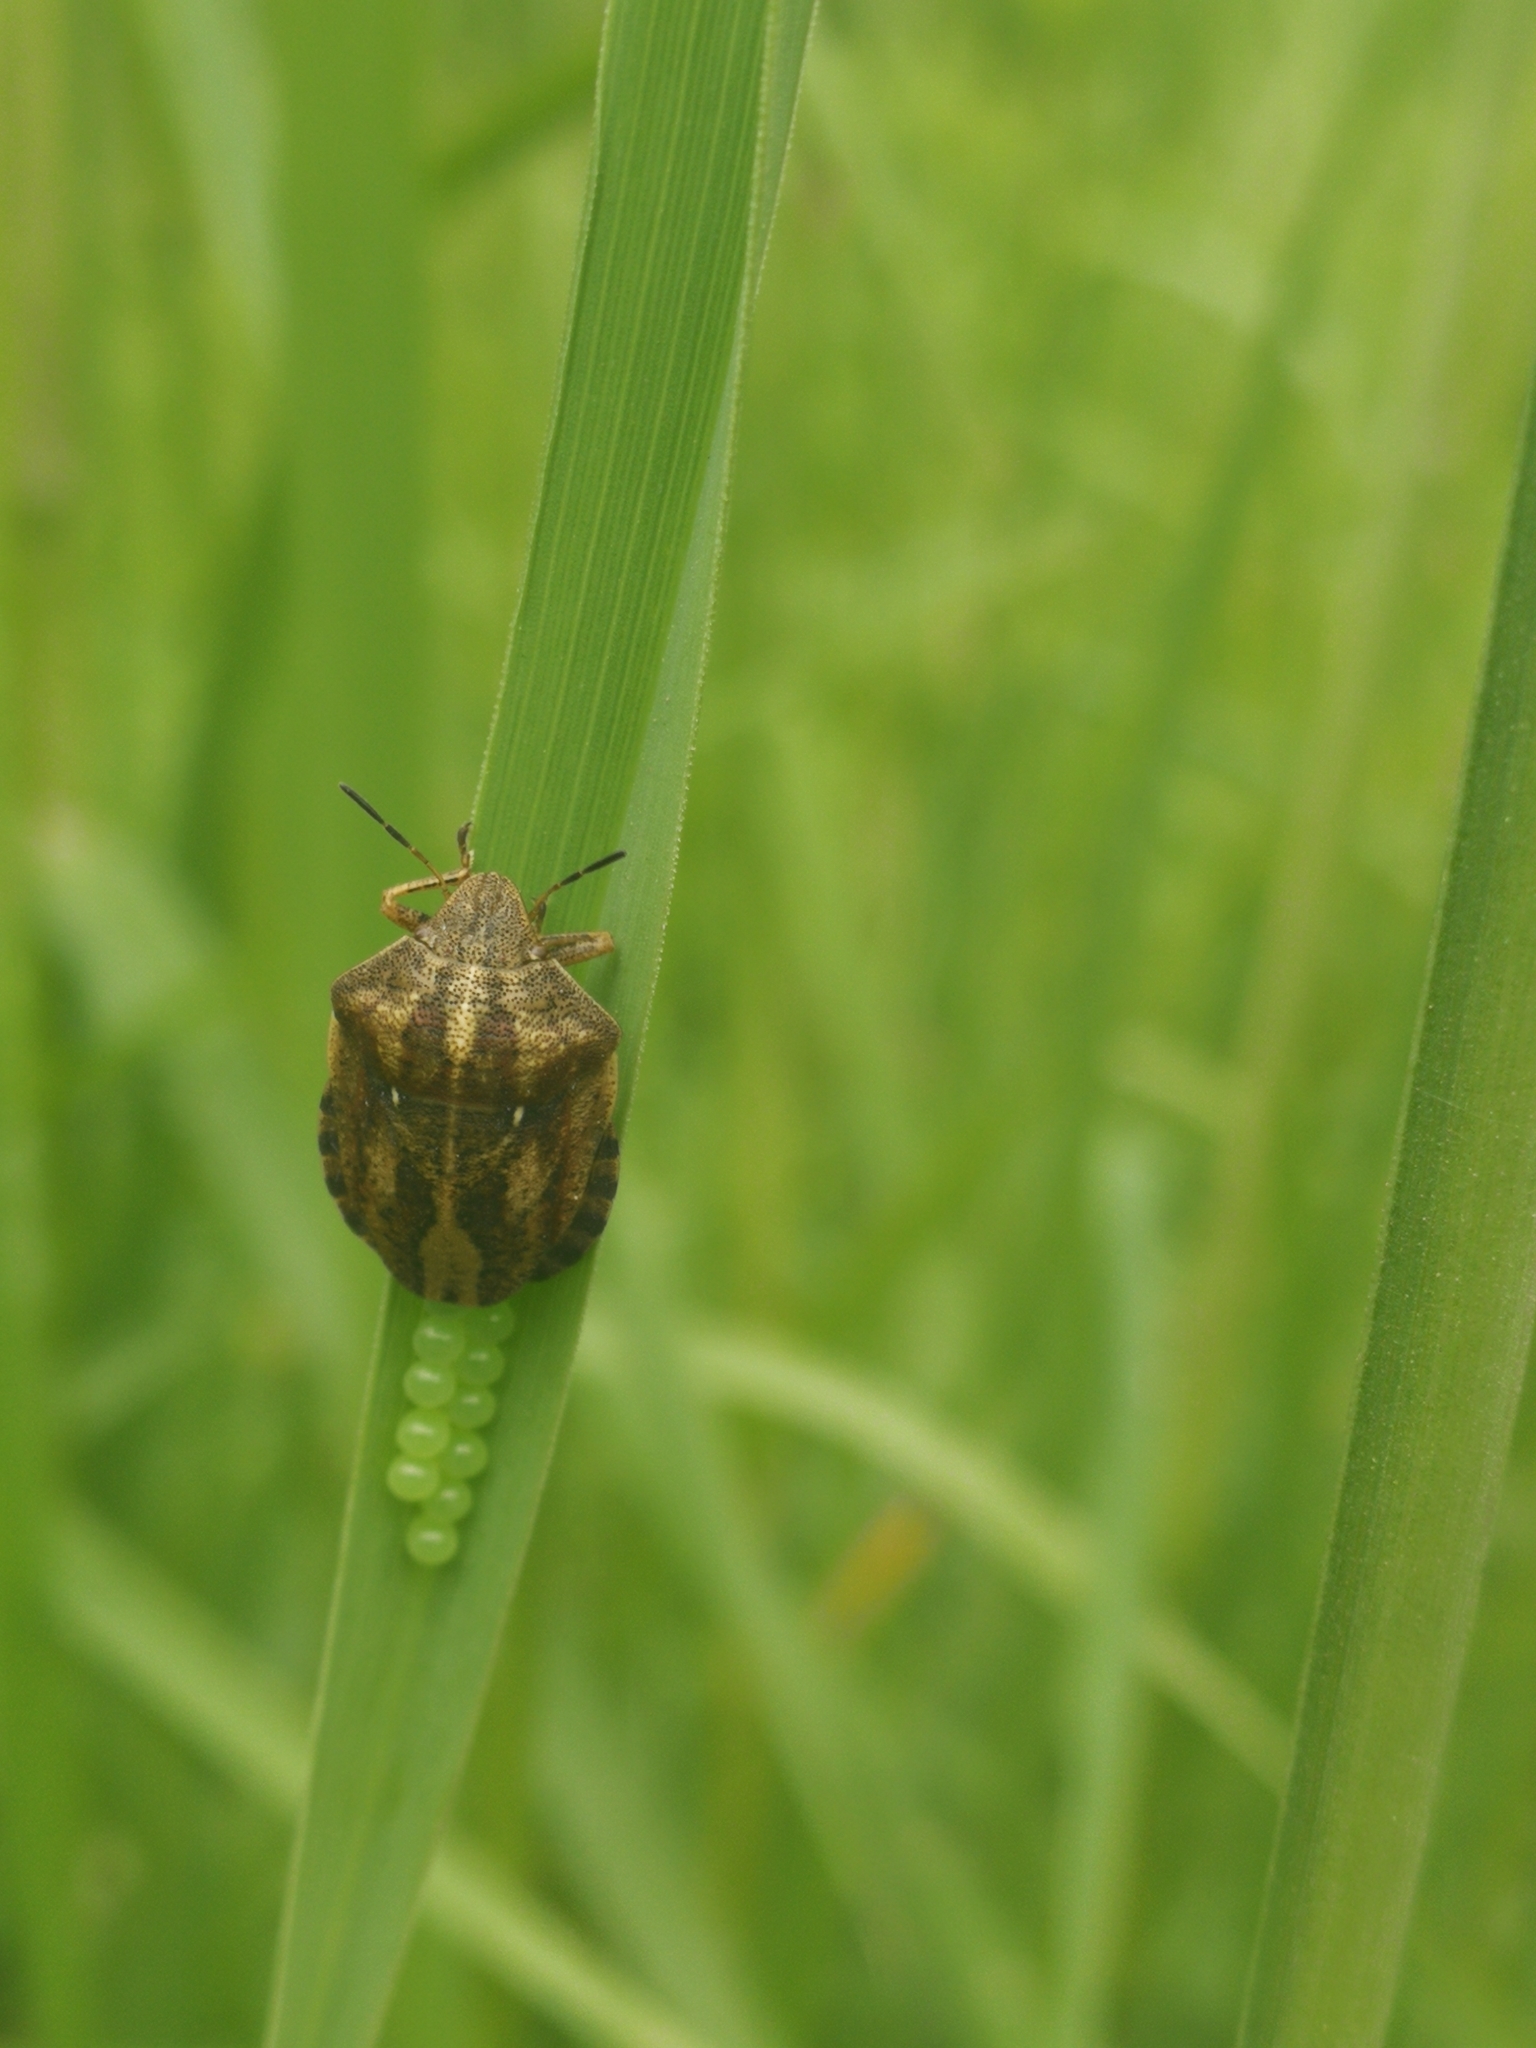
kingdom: Animalia
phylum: Arthropoda
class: Insecta
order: Hemiptera
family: Scutelleridae
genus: Eurygaster
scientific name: Eurygaster testudinaria
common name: Tortoise bug
